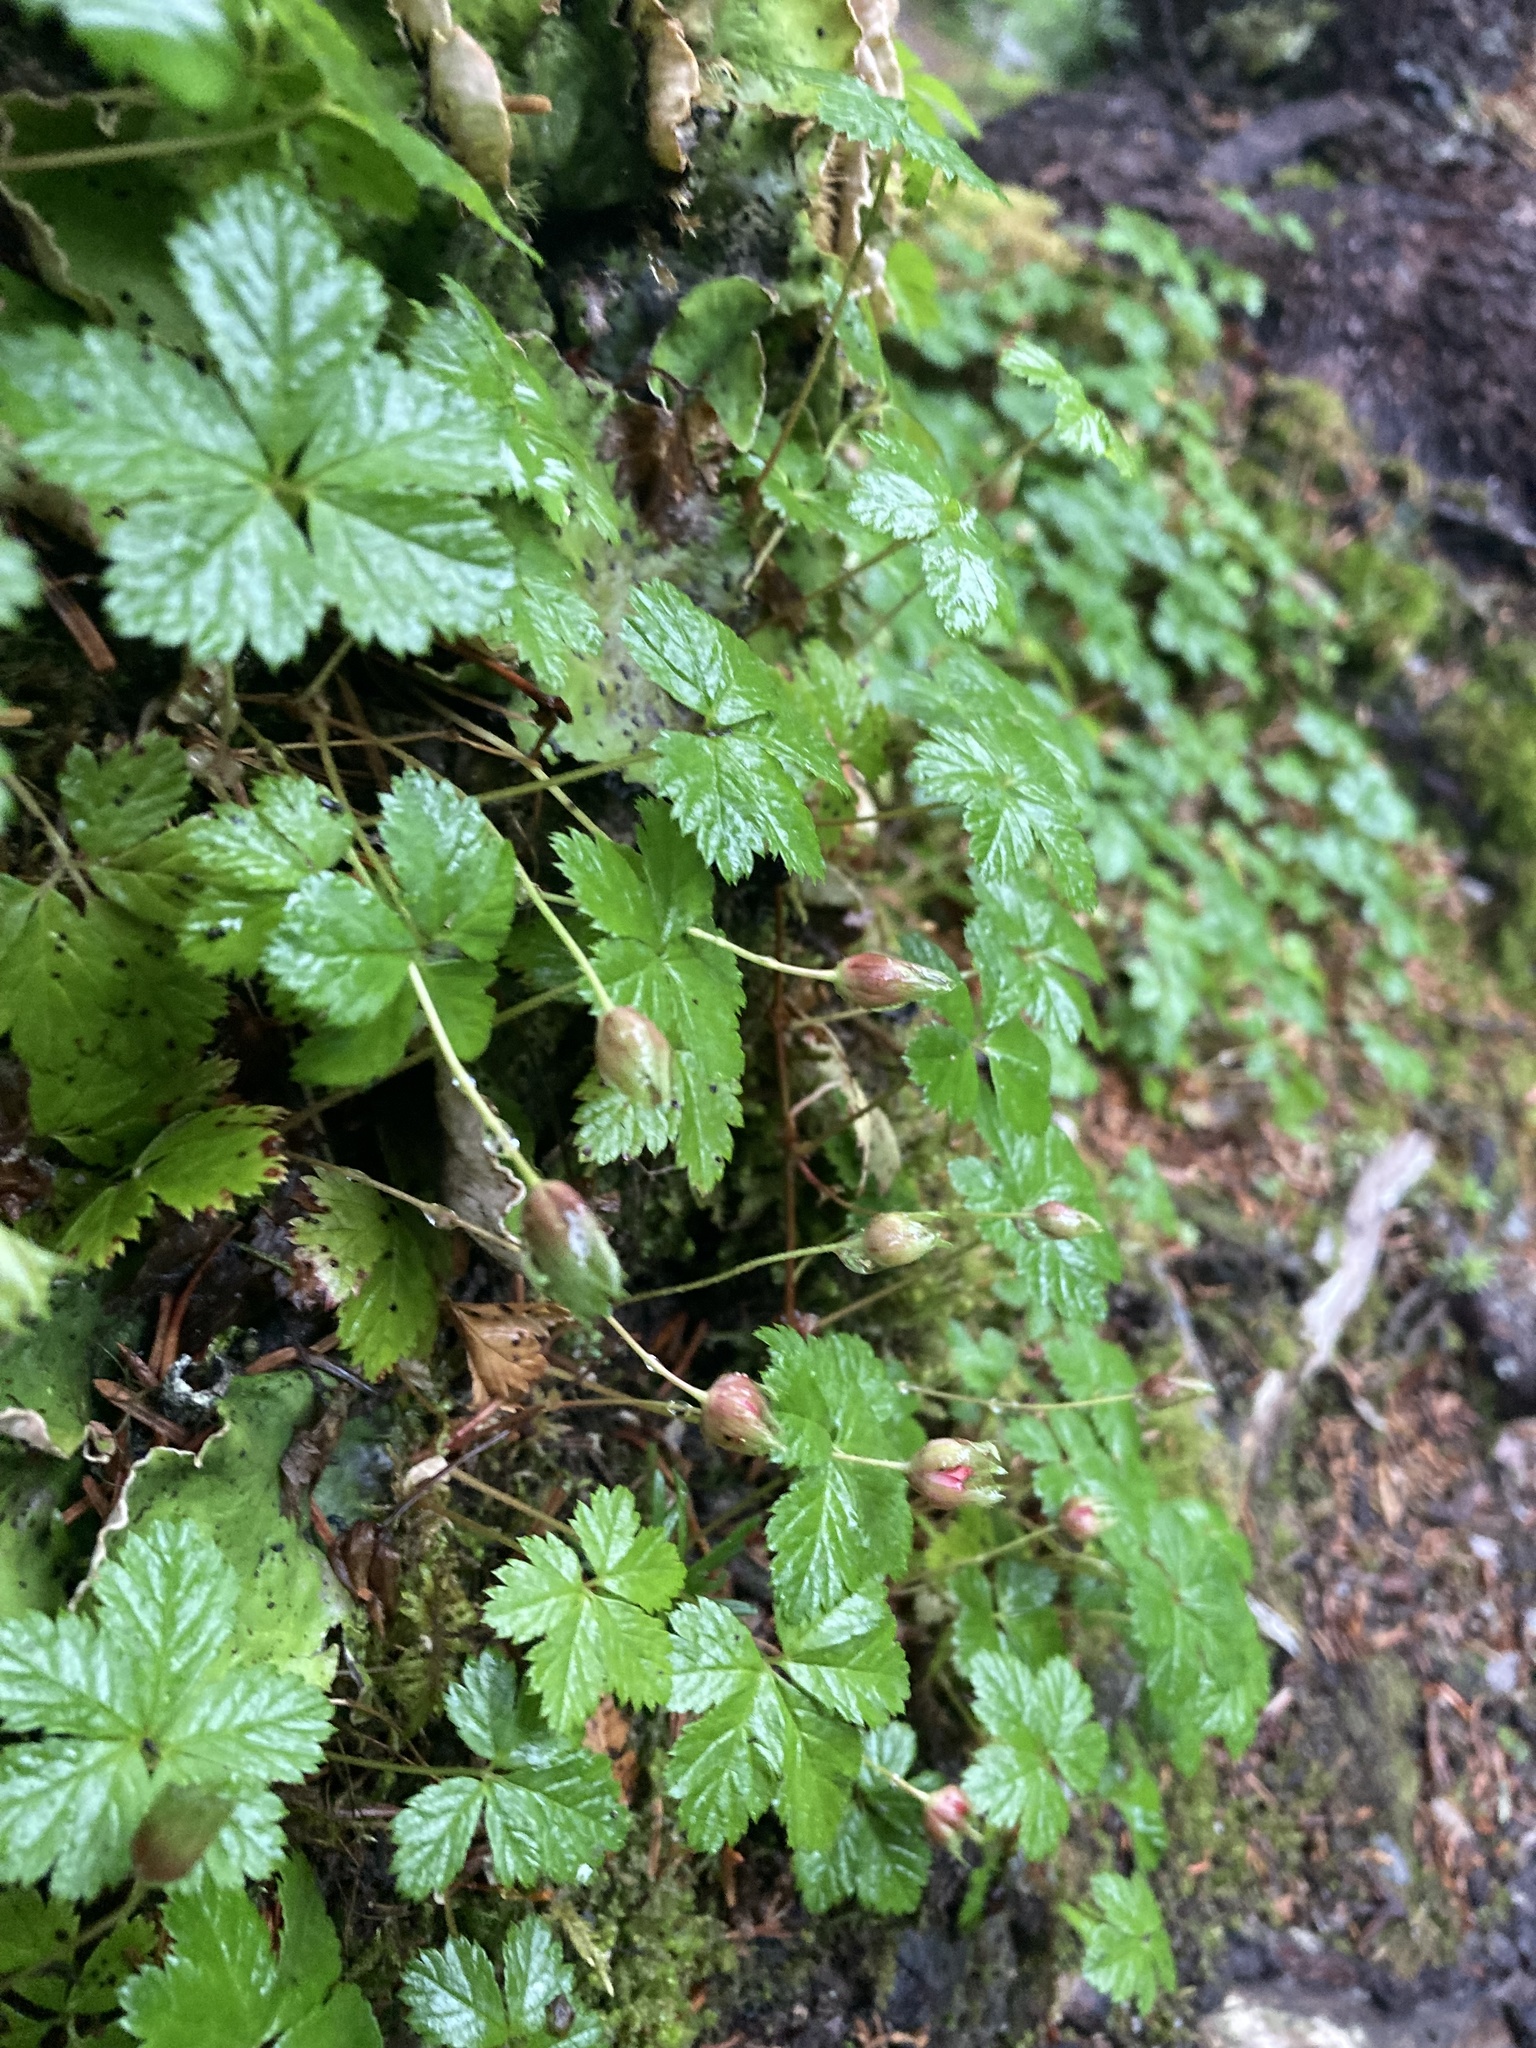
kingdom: Plantae
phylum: Tracheophyta
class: Magnoliopsida
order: Rosales
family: Rosaceae
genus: Rubus
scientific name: Rubus pedatus
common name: Creeping raspberry
